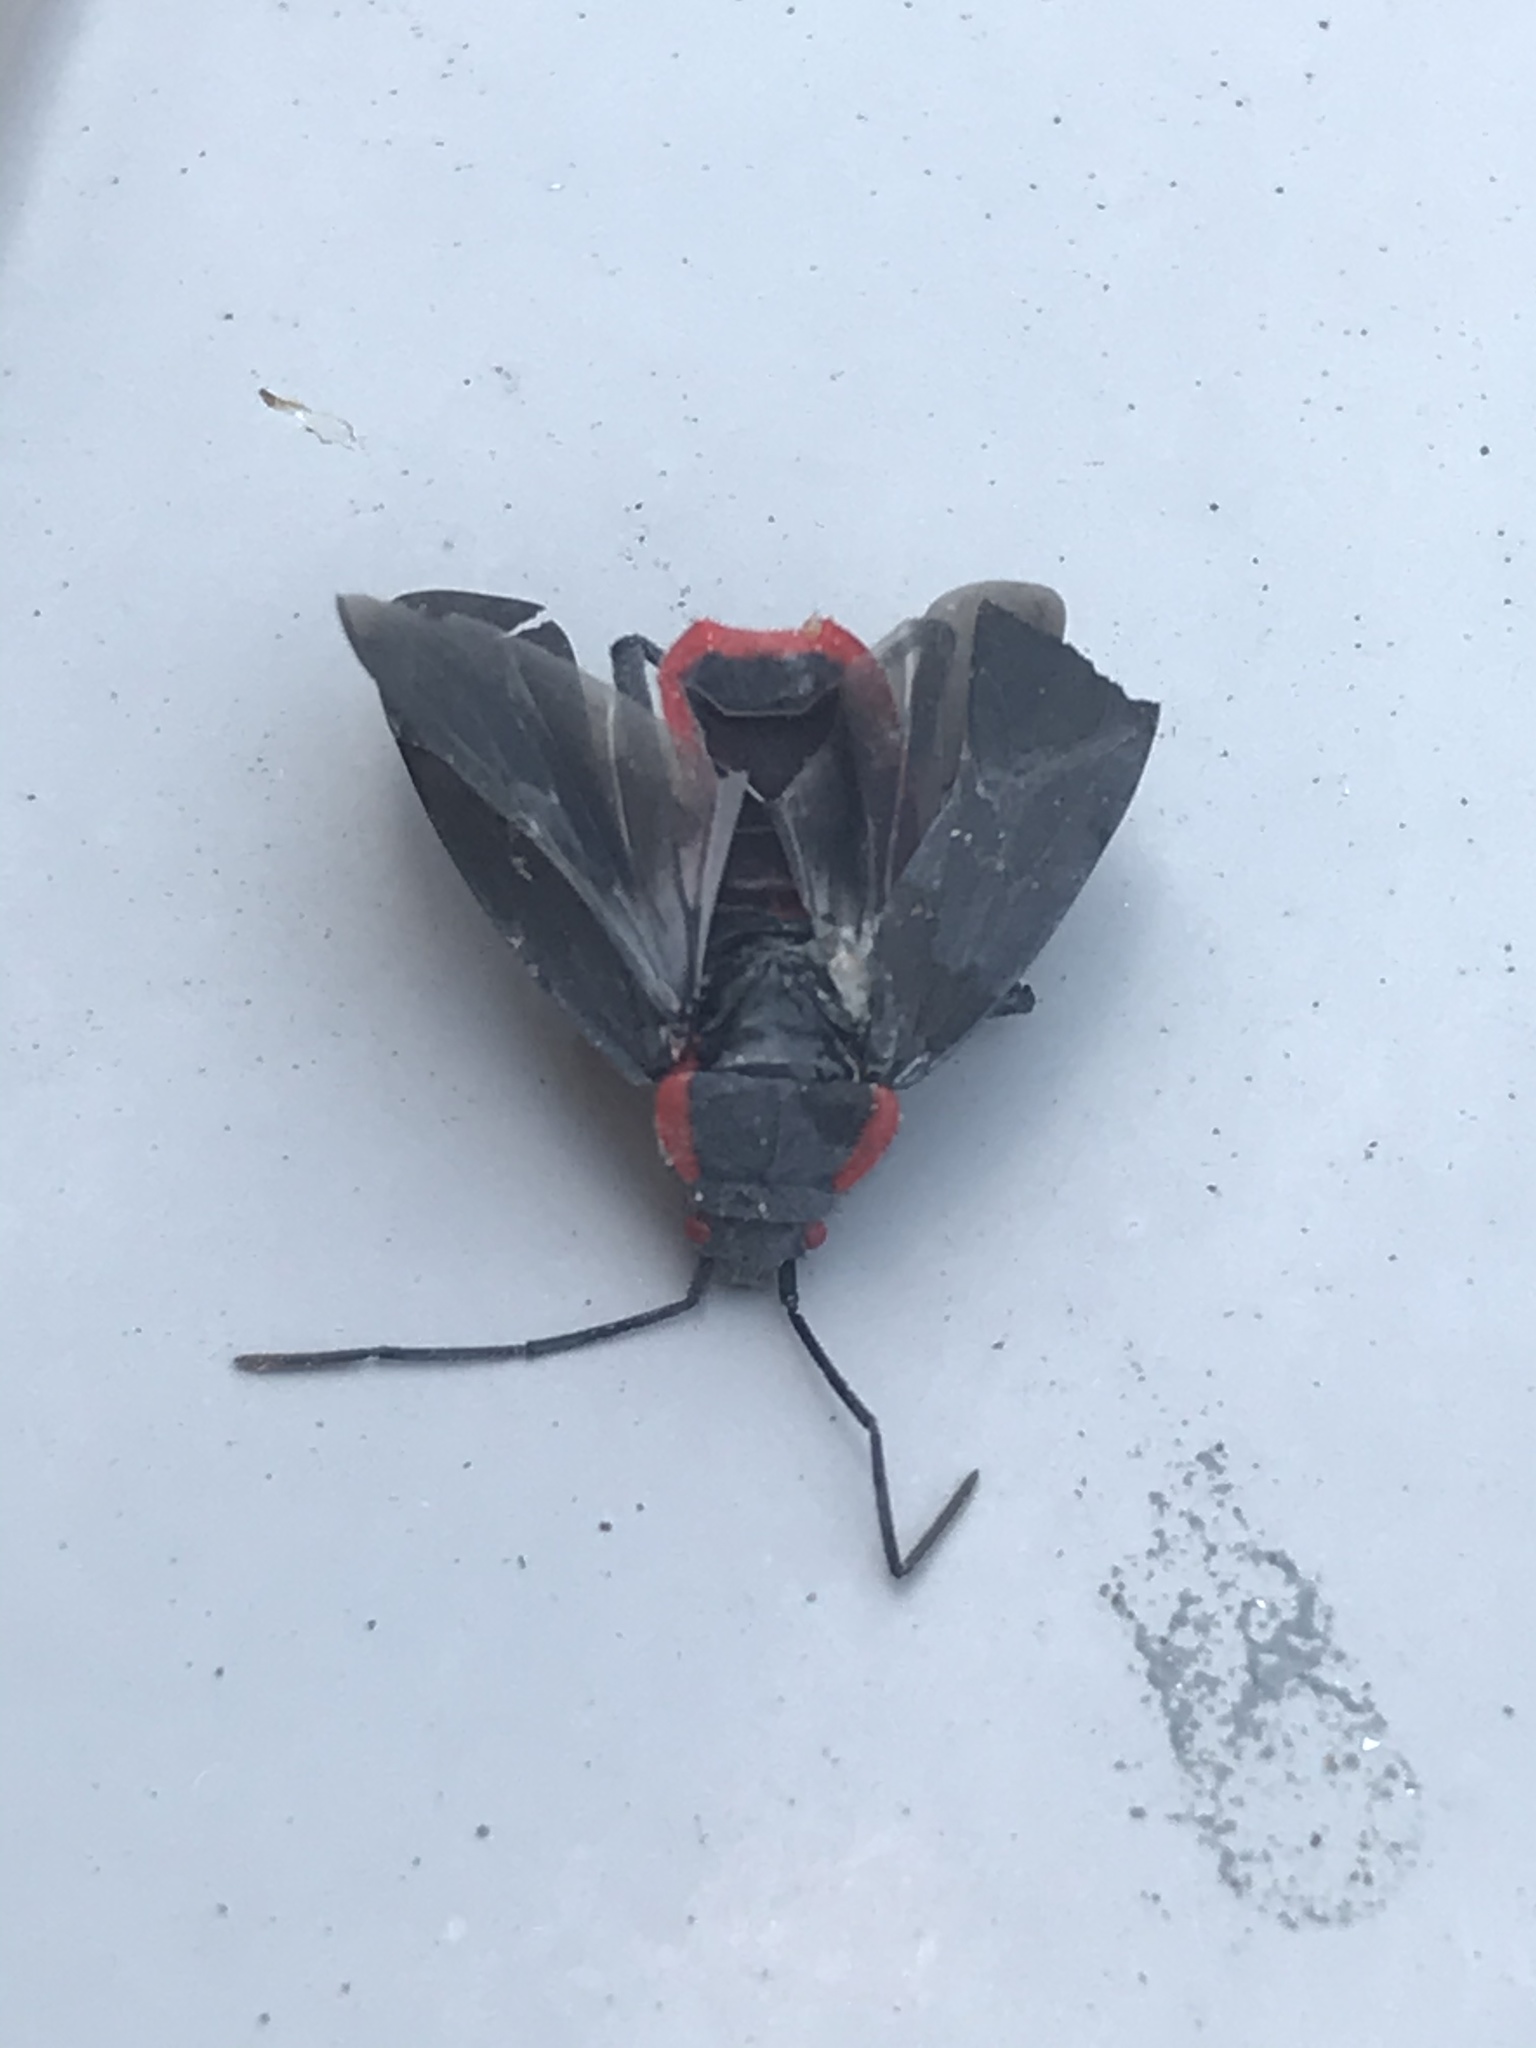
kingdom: Animalia
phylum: Arthropoda
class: Insecta
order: Hemiptera
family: Rhopalidae
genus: Jadera
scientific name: Jadera haematoloma
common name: Red-shouldered bug
